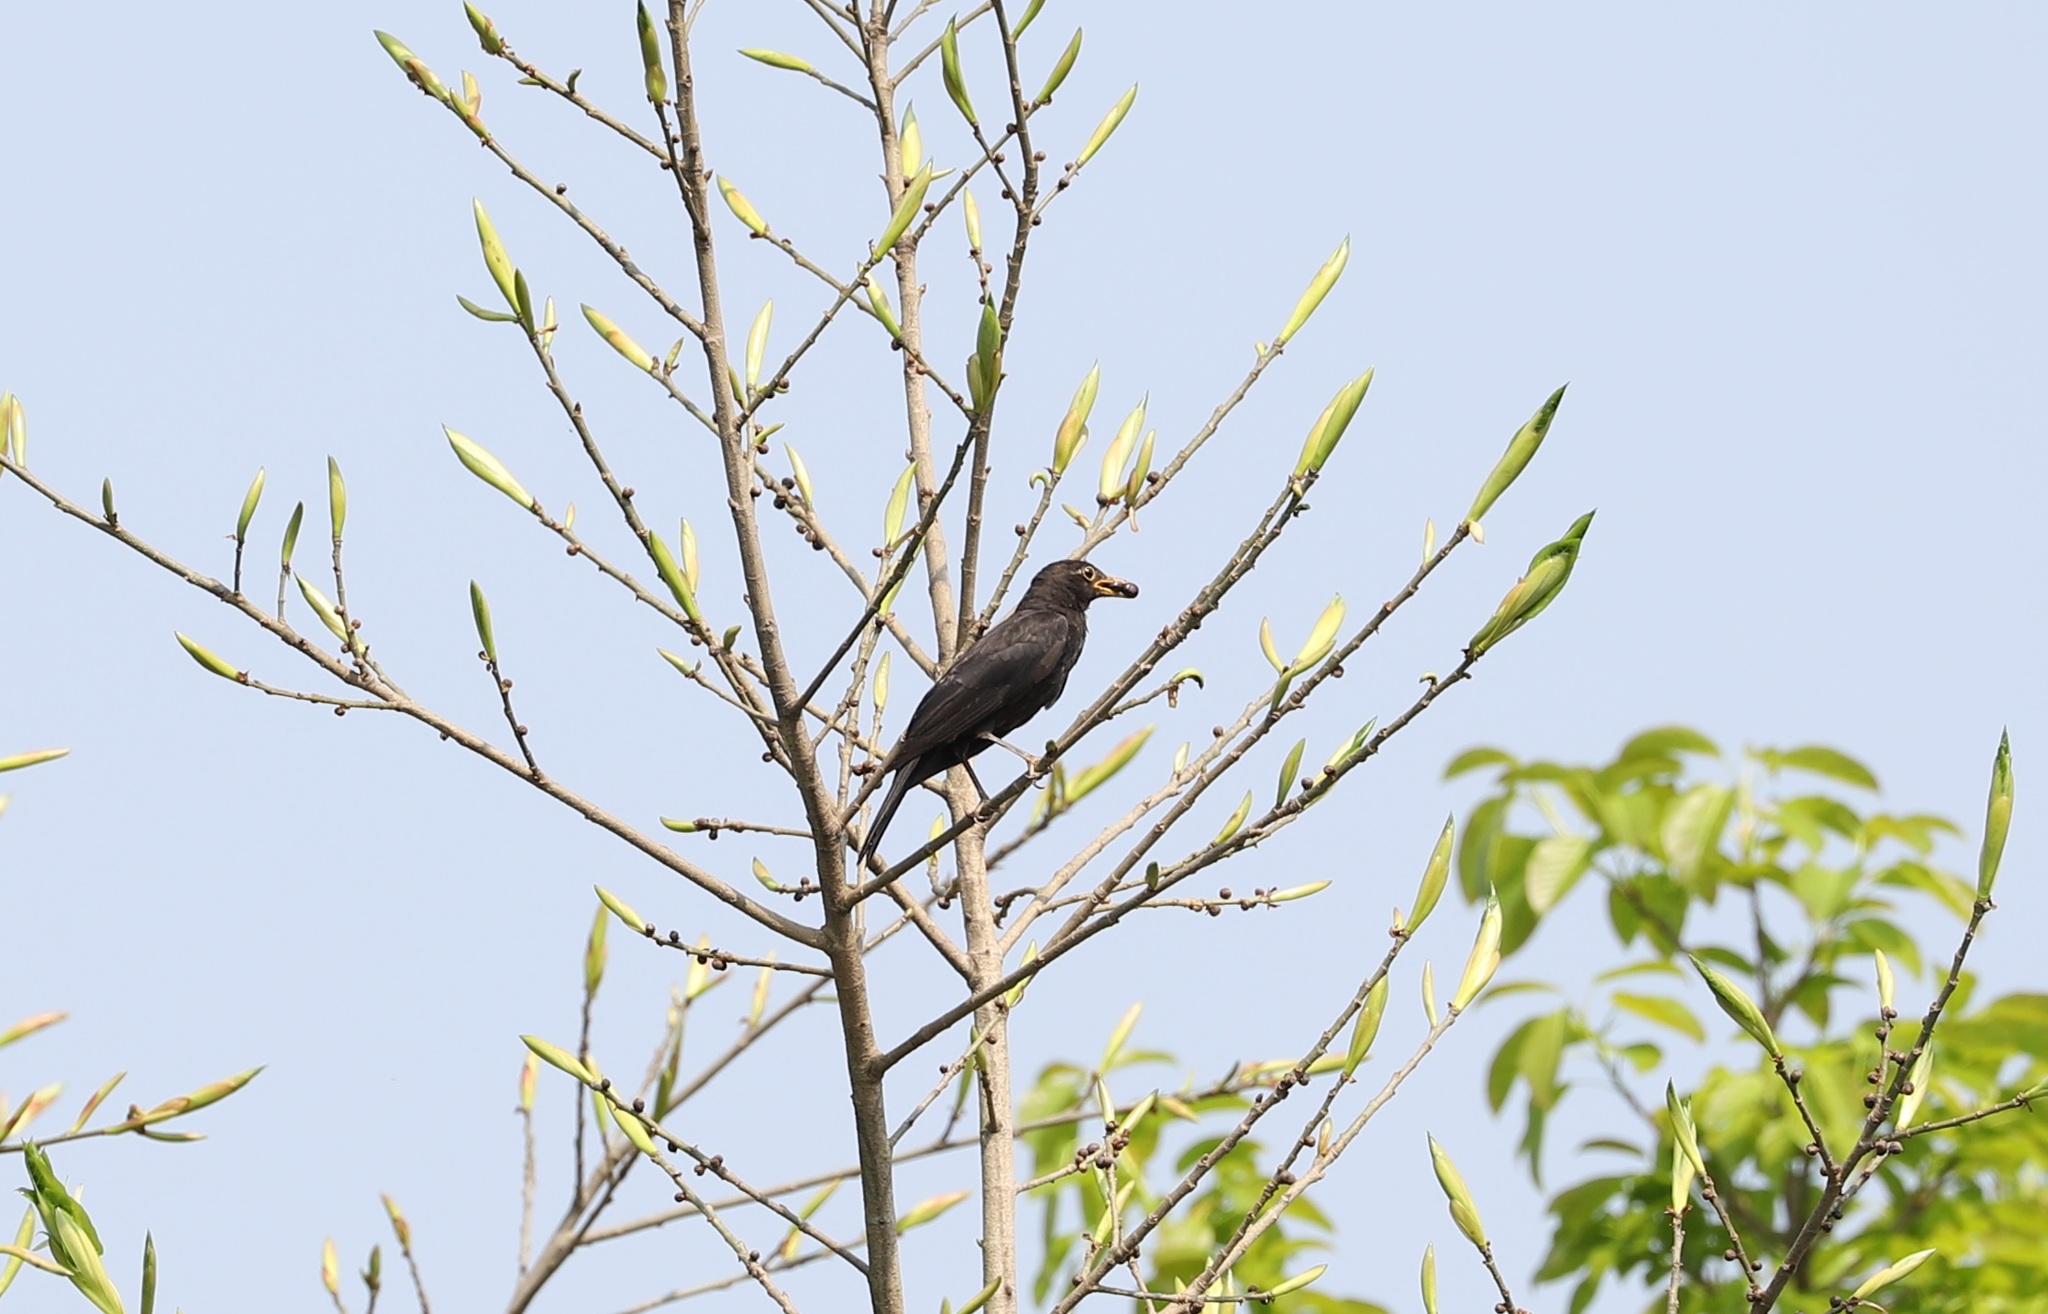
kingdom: Animalia
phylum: Chordata
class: Aves
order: Passeriformes
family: Turdidae
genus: Turdus
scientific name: Turdus mandarinus
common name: Chinese blackbird
